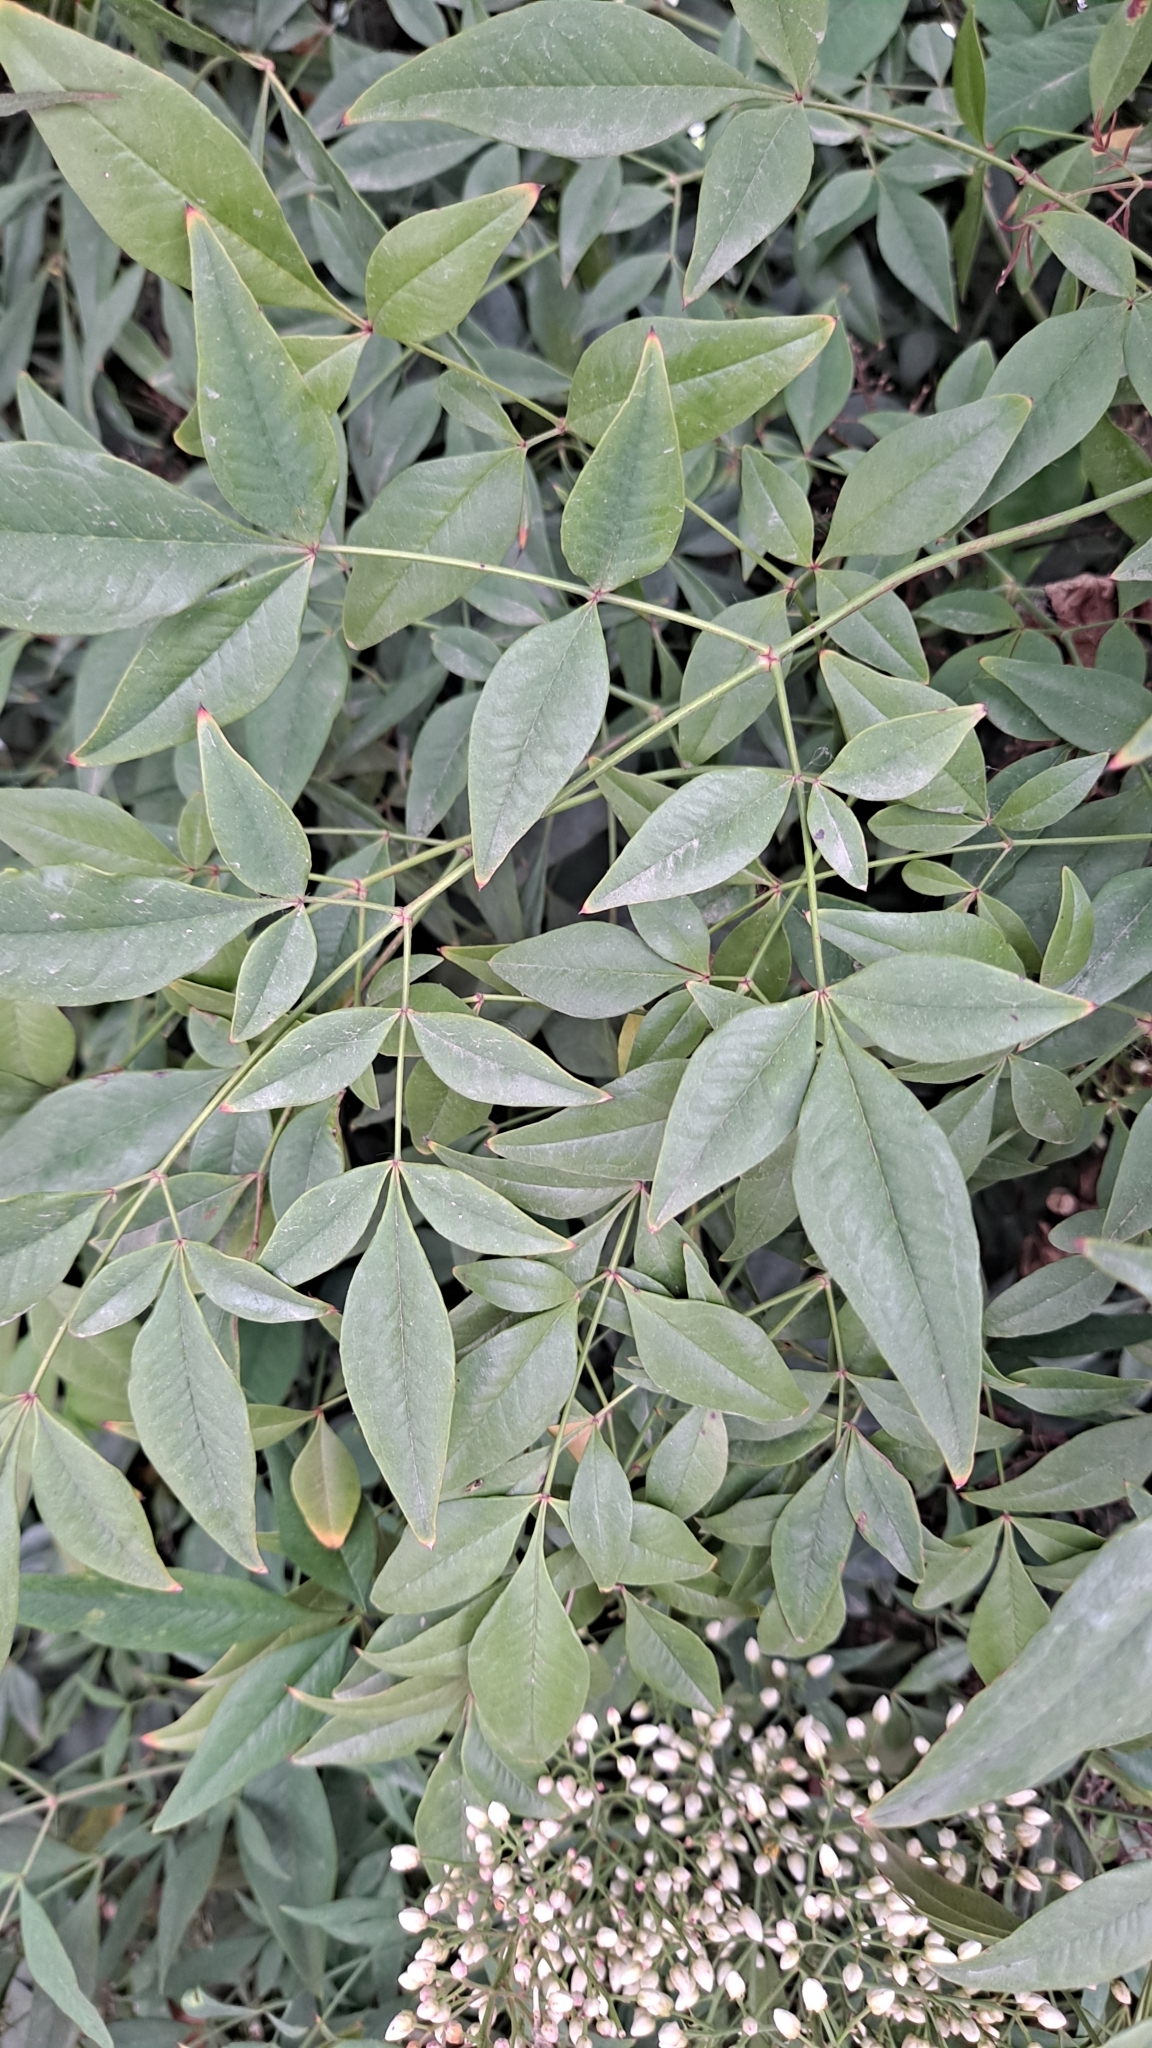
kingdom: Plantae
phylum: Tracheophyta
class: Magnoliopsida
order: Ranunculales
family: Berberidaceae
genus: Nandina
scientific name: Nandina domestica
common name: Sacred bamboo
